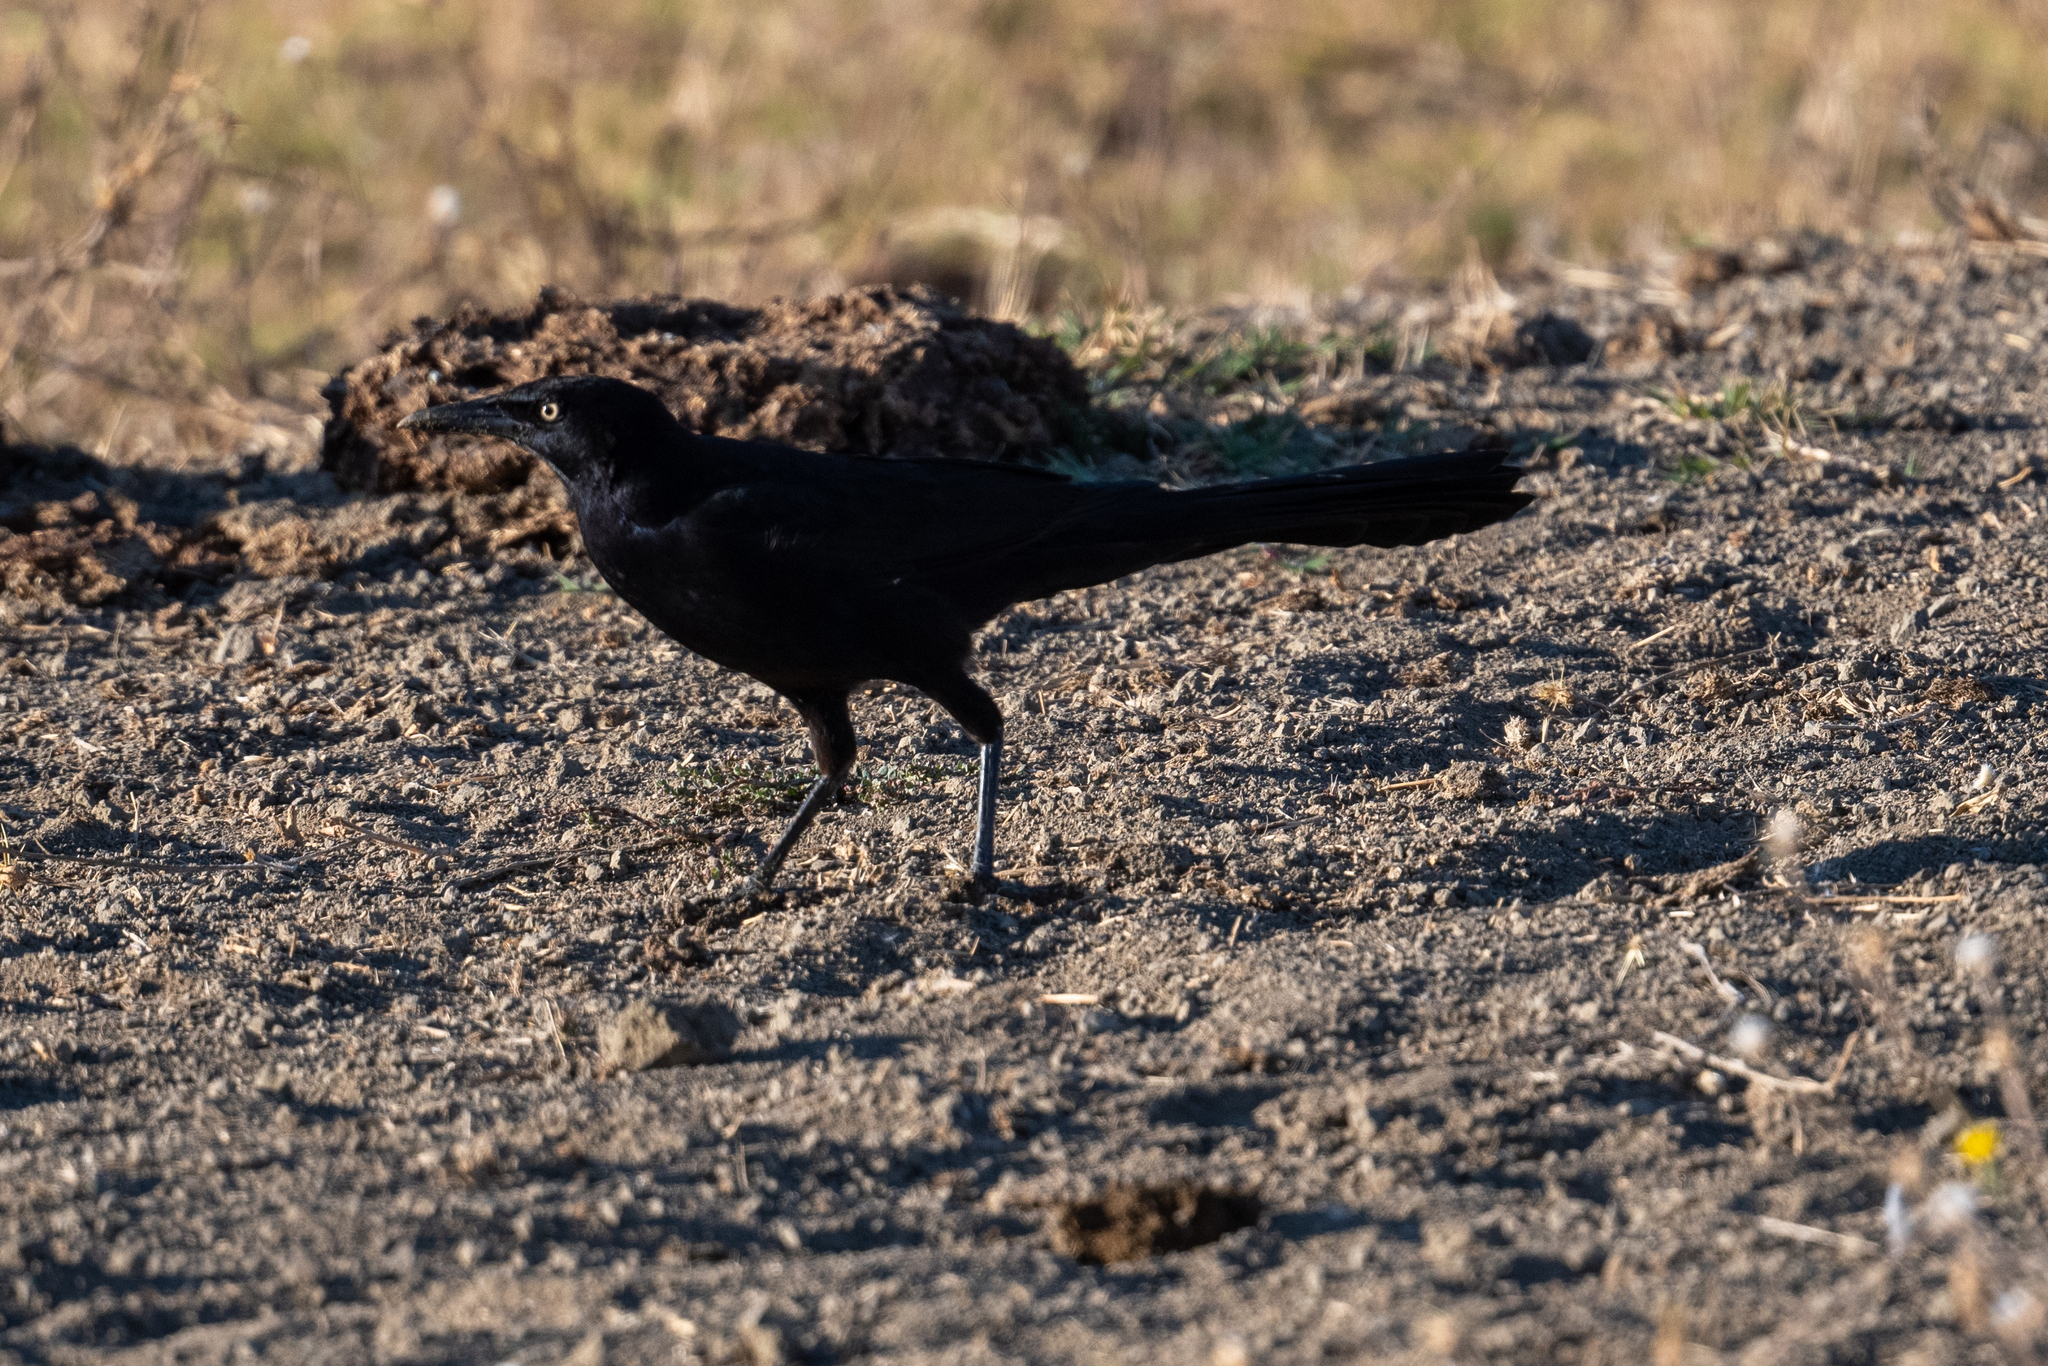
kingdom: Animalia
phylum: Chordata
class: Aves
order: Passeriformes
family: Icteridae
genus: Quiscalus
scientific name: Quiscalus mexicanus
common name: Great-tailed grackle
